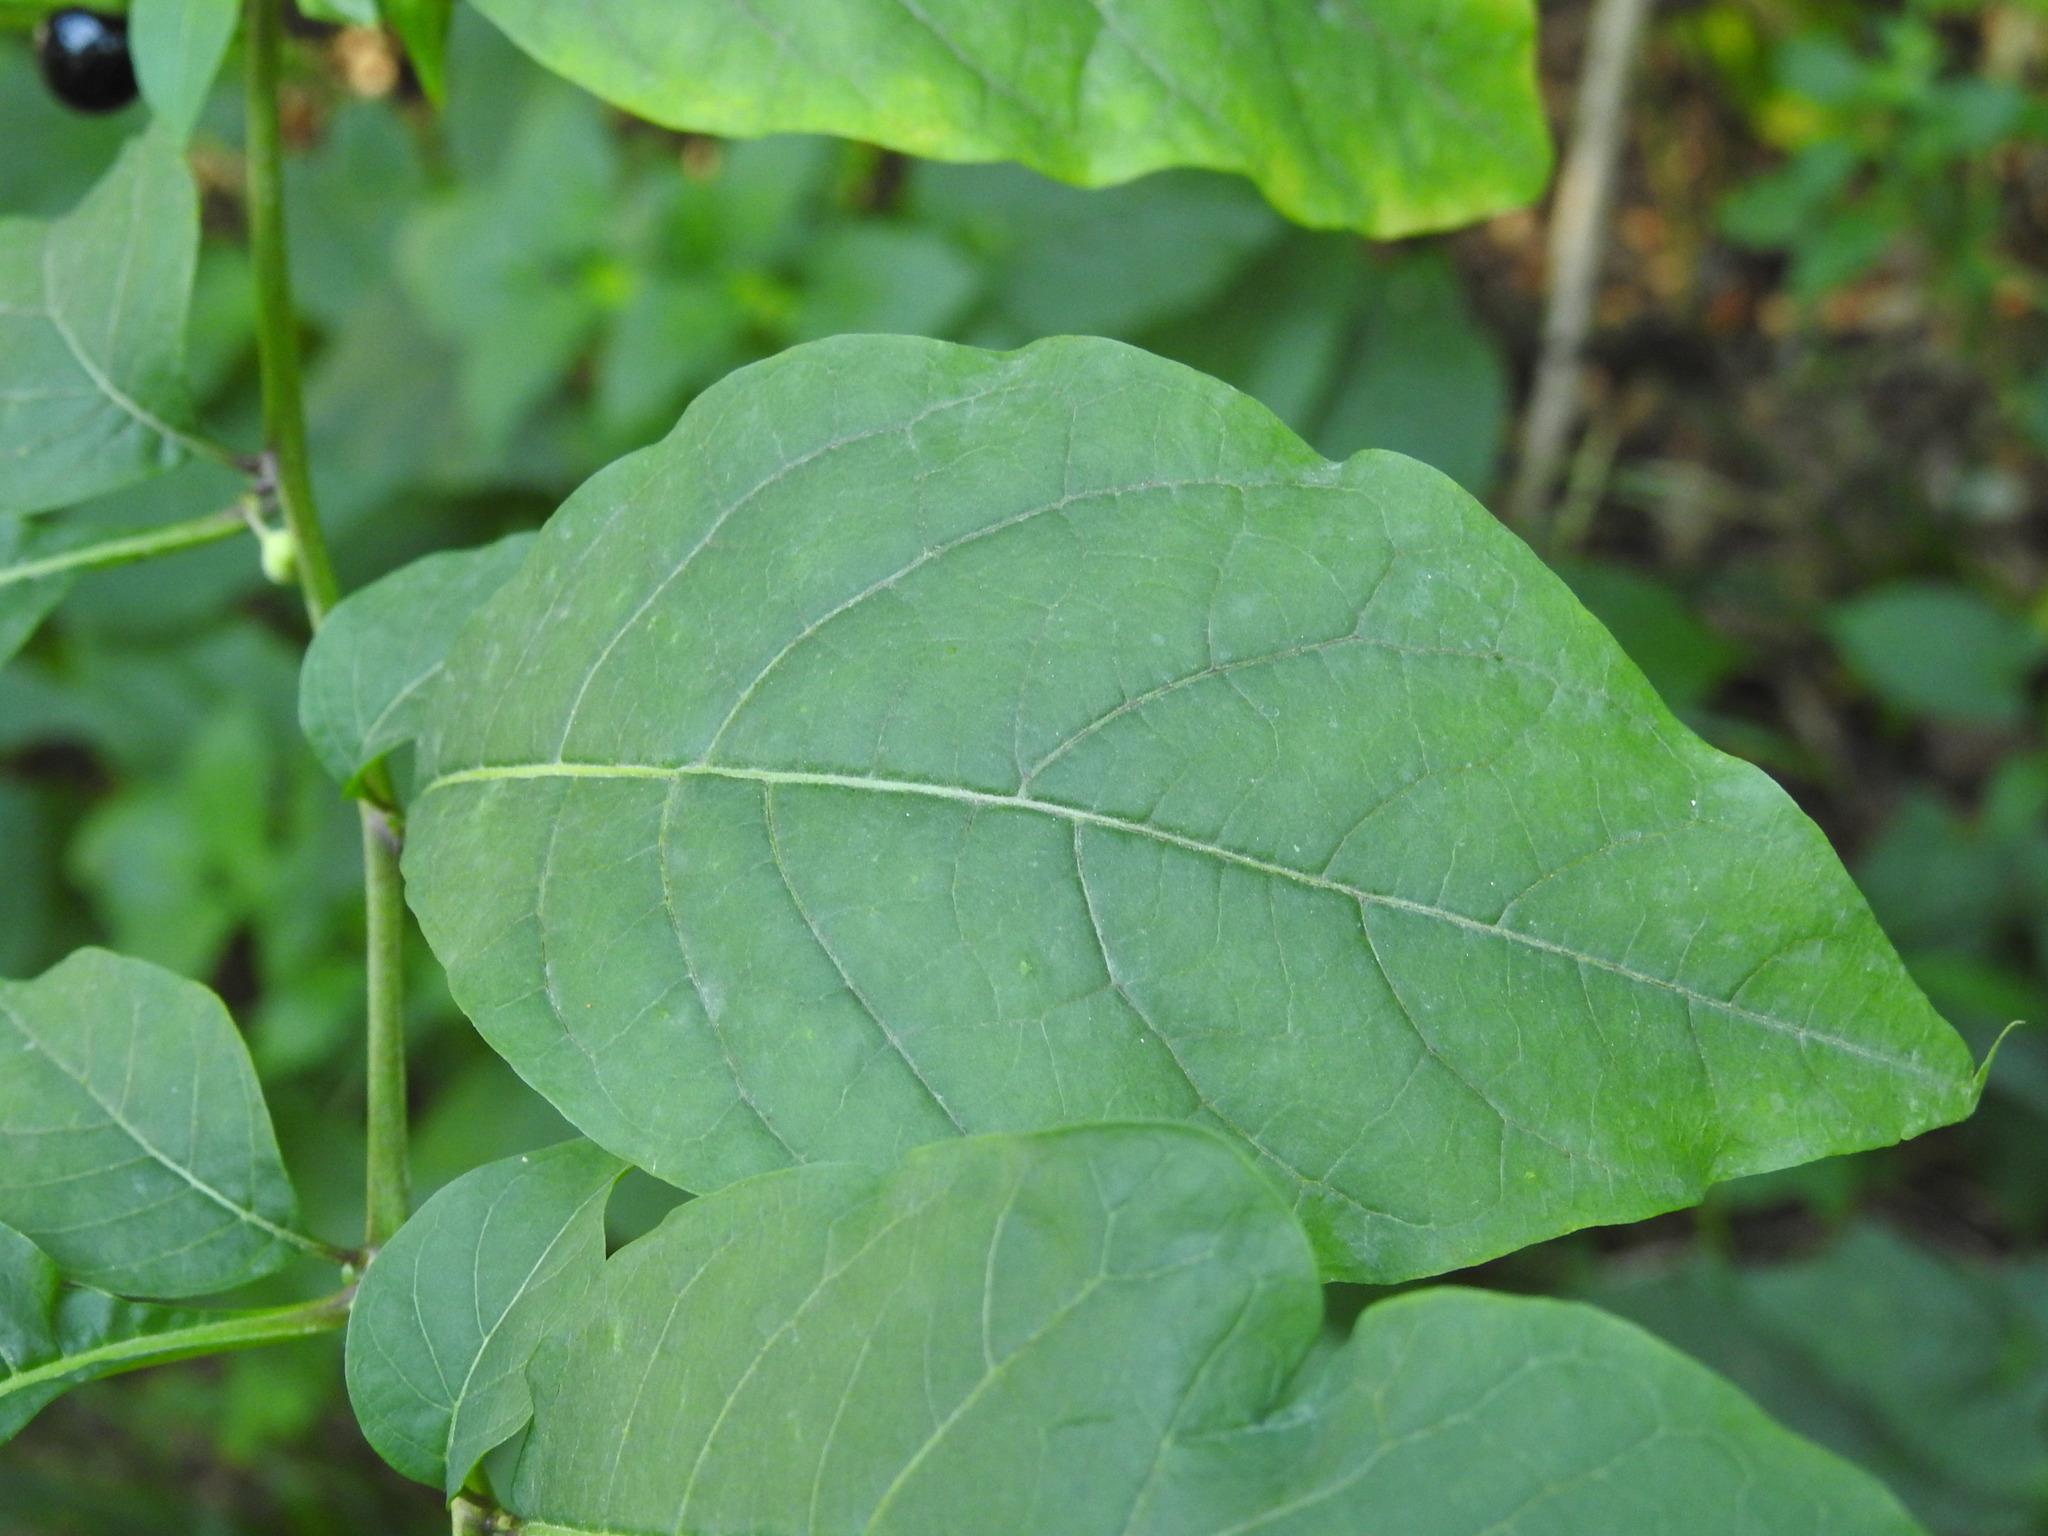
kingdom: Plantae
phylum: Tracheophyta
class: Magnoliopsida
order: Solanales
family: Solanaceae
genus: Atropa
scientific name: Atropa belladonna
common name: Deadly nightshade
